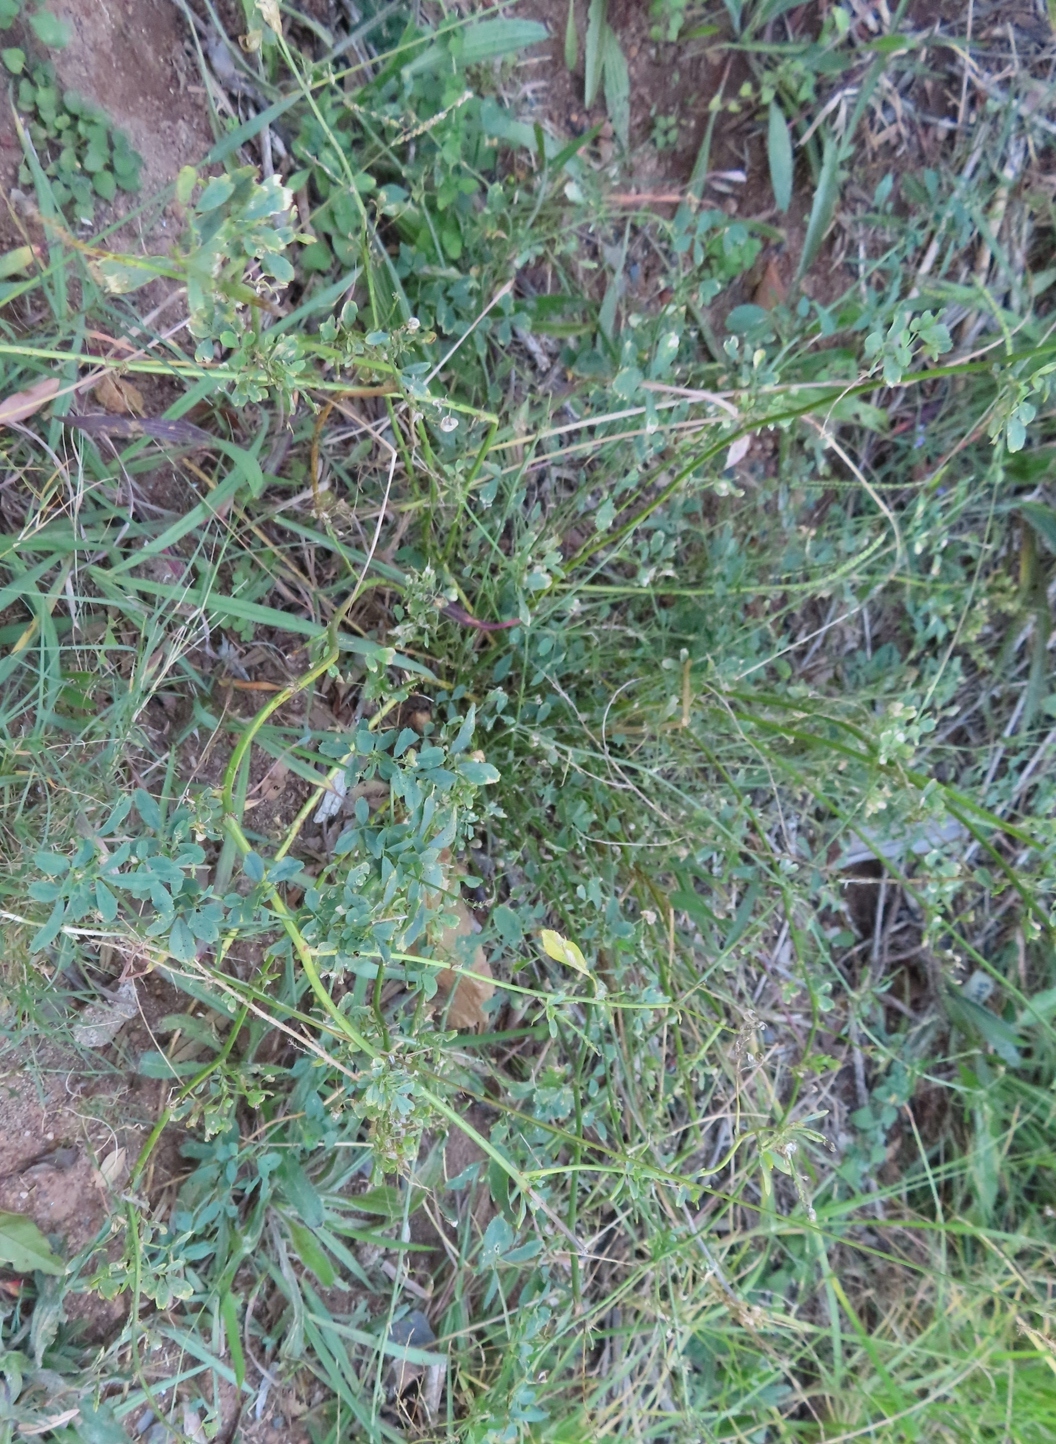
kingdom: Plantae
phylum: Tracheophyta
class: Magnoliopsida
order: Fabales
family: Fabaceae
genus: Medicago
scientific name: Medicago sativa
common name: Alfalfa
